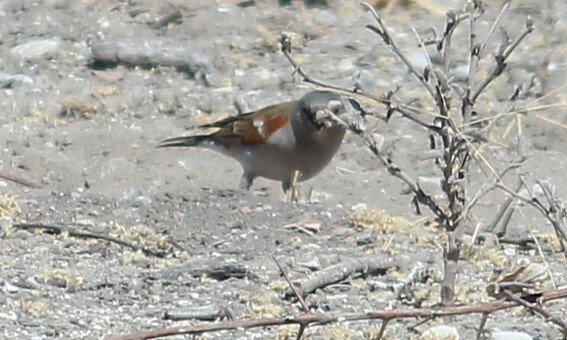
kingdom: Animalia
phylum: Chordata
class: Aves
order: Passeriformes
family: Passeridae
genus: Passer
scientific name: Passer diffusus
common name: Southern grey-headed sparrow
